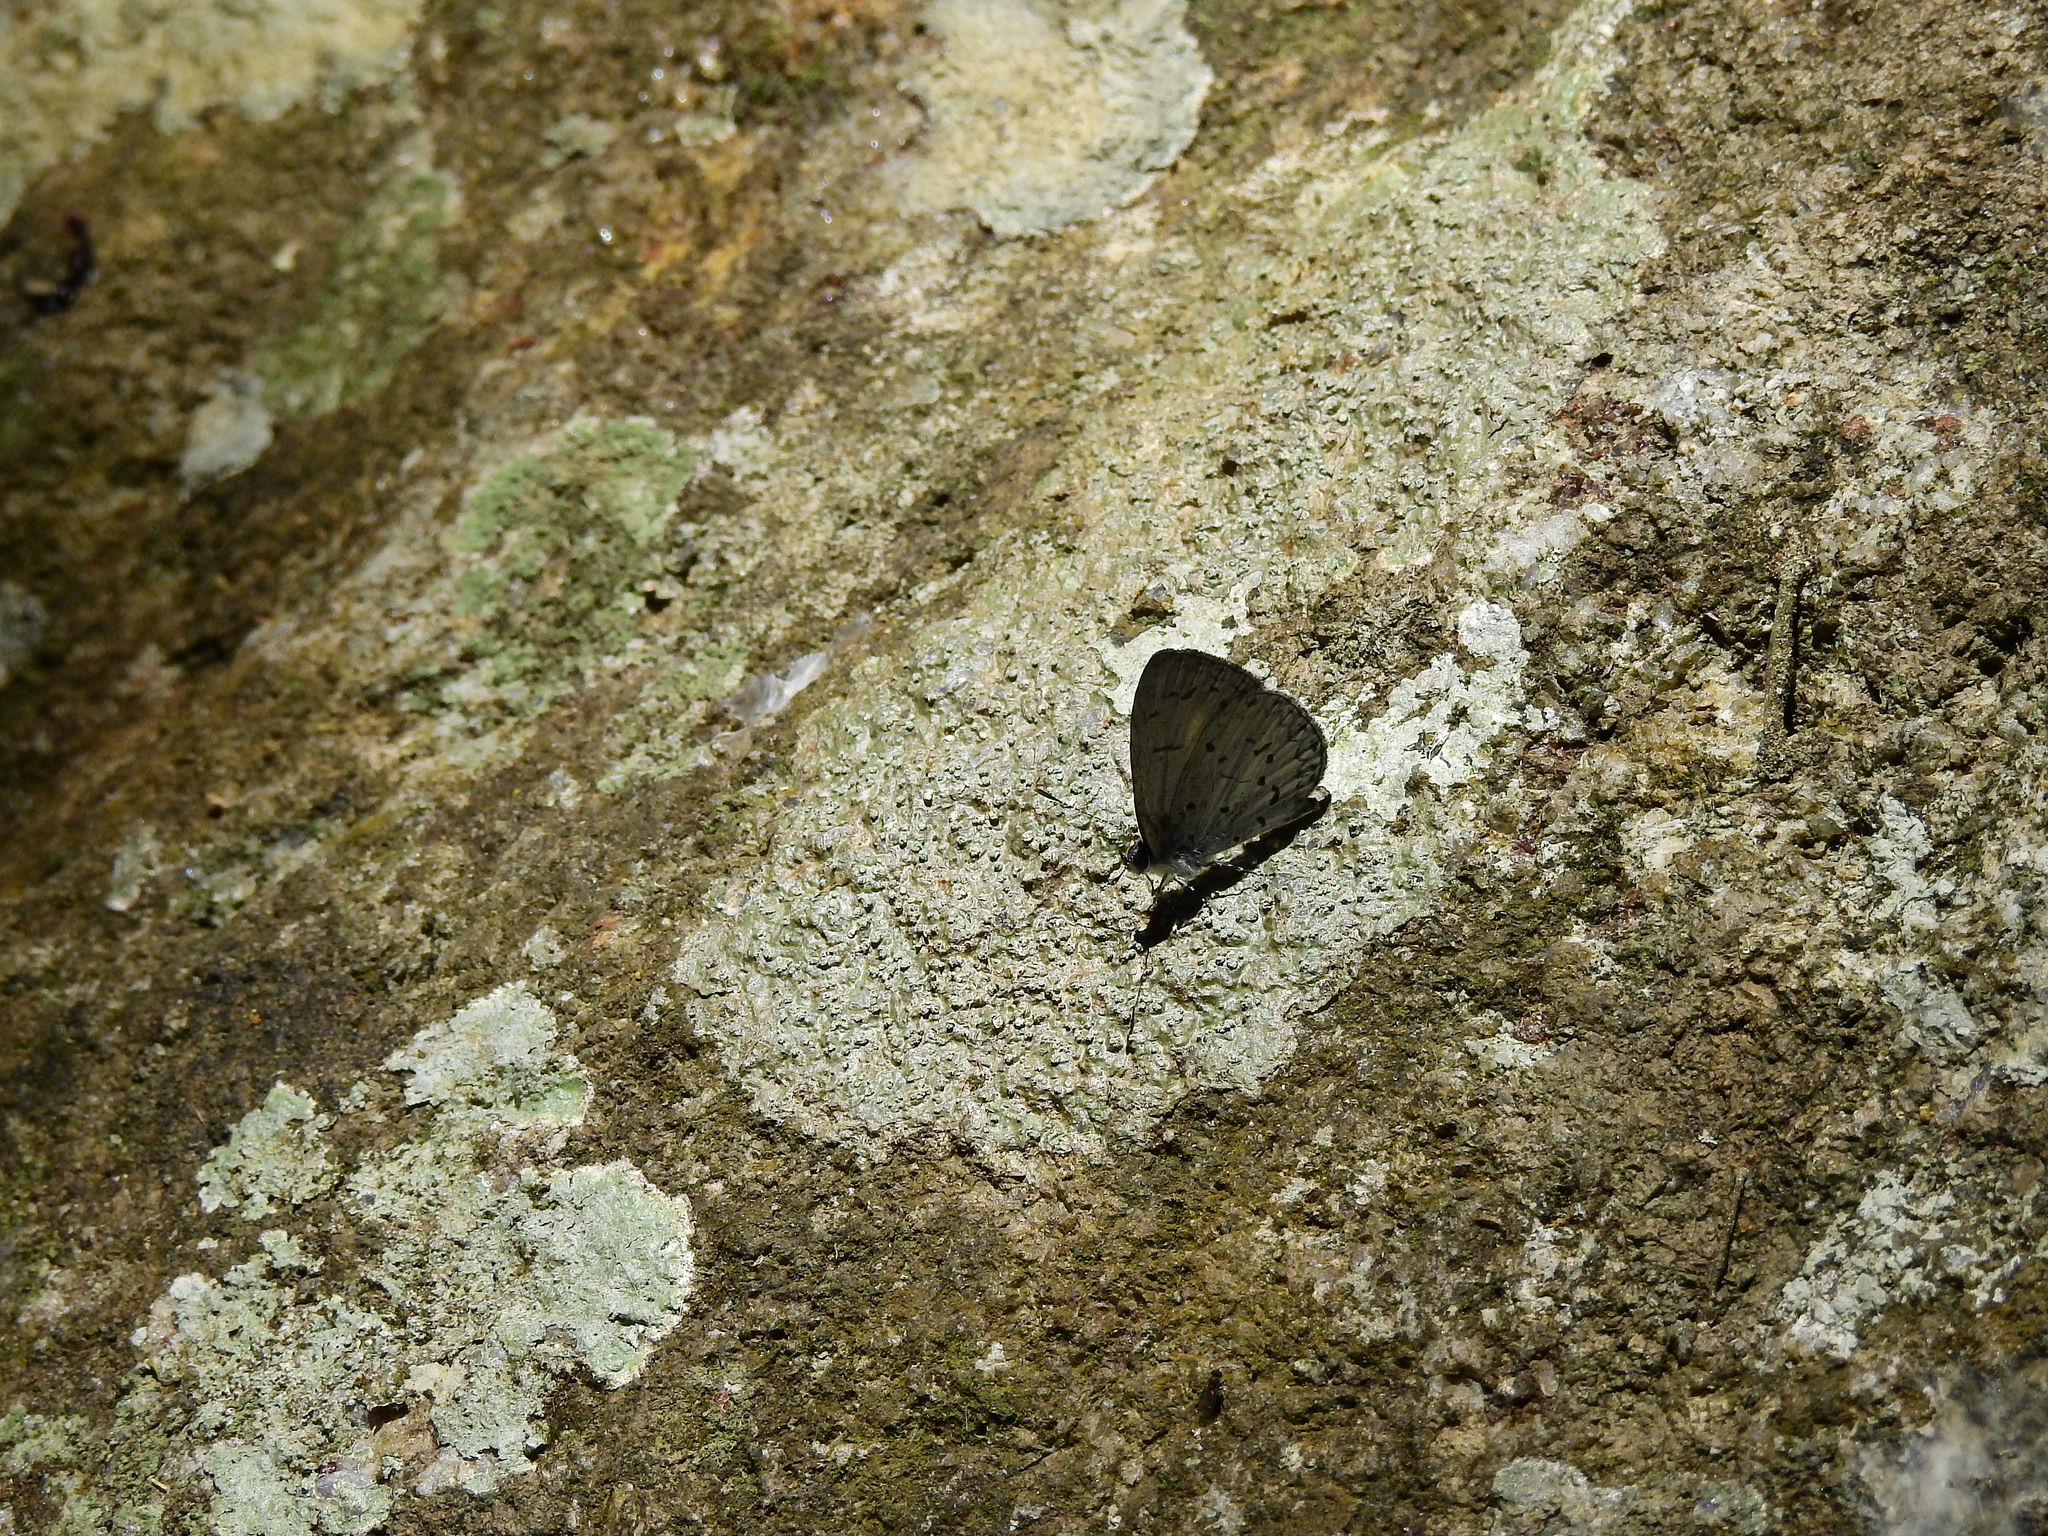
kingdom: Animalia
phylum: Arthropoda
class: Insecta
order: Lepidoptera
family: Lycaenidae
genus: Celatoxia
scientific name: Celatoxia
